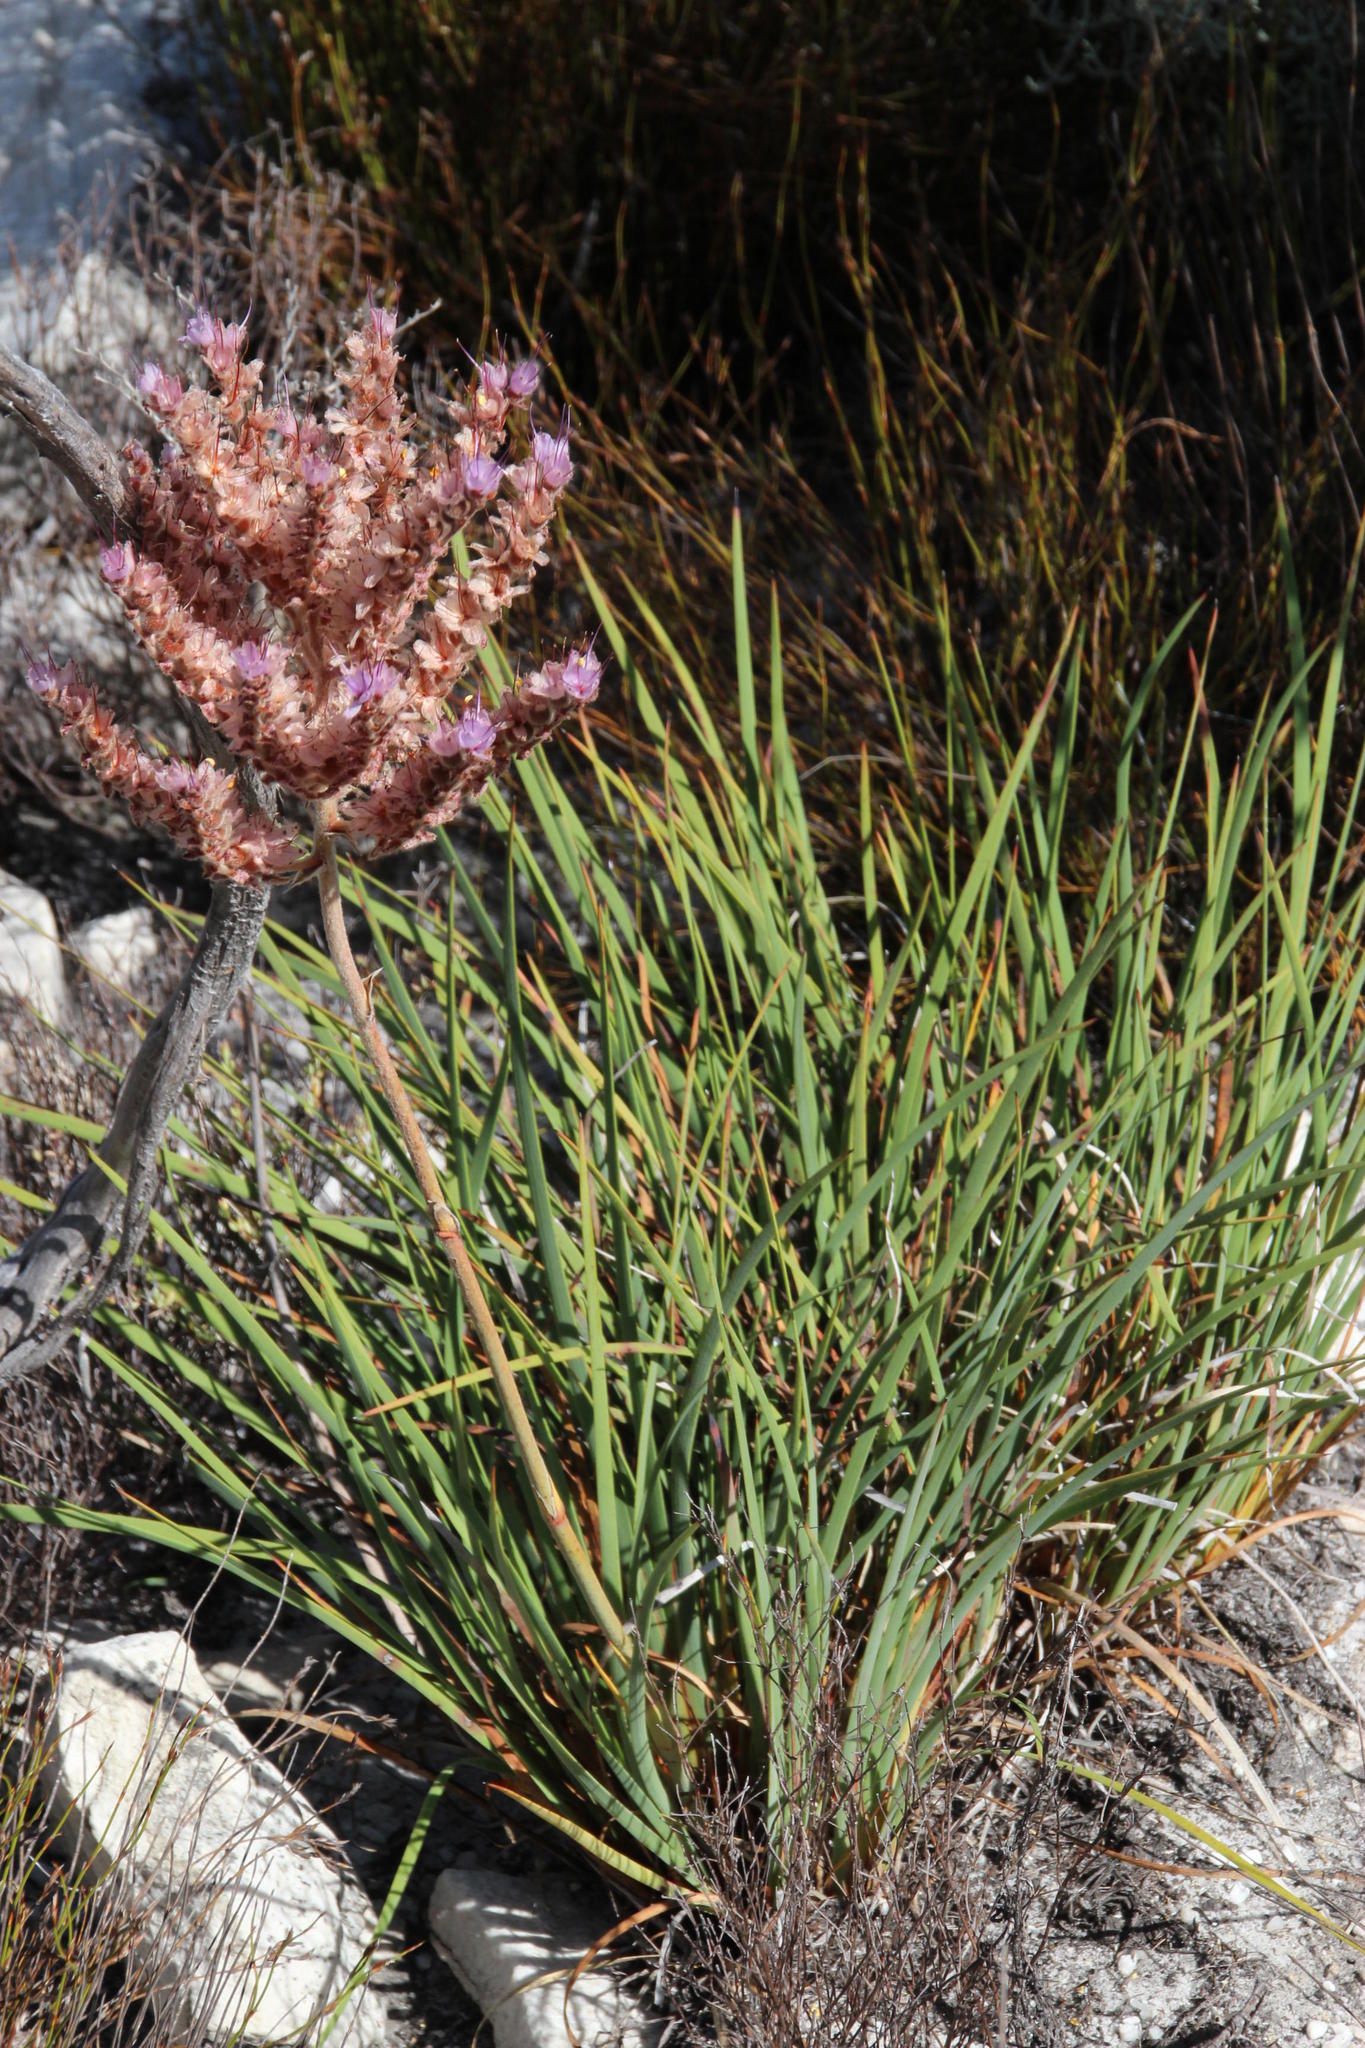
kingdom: Plantae
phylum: Tracheophyta
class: Liliopsida
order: Commelinales
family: Haemodoraceae
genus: Dilatris
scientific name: Dilatris ixioides
